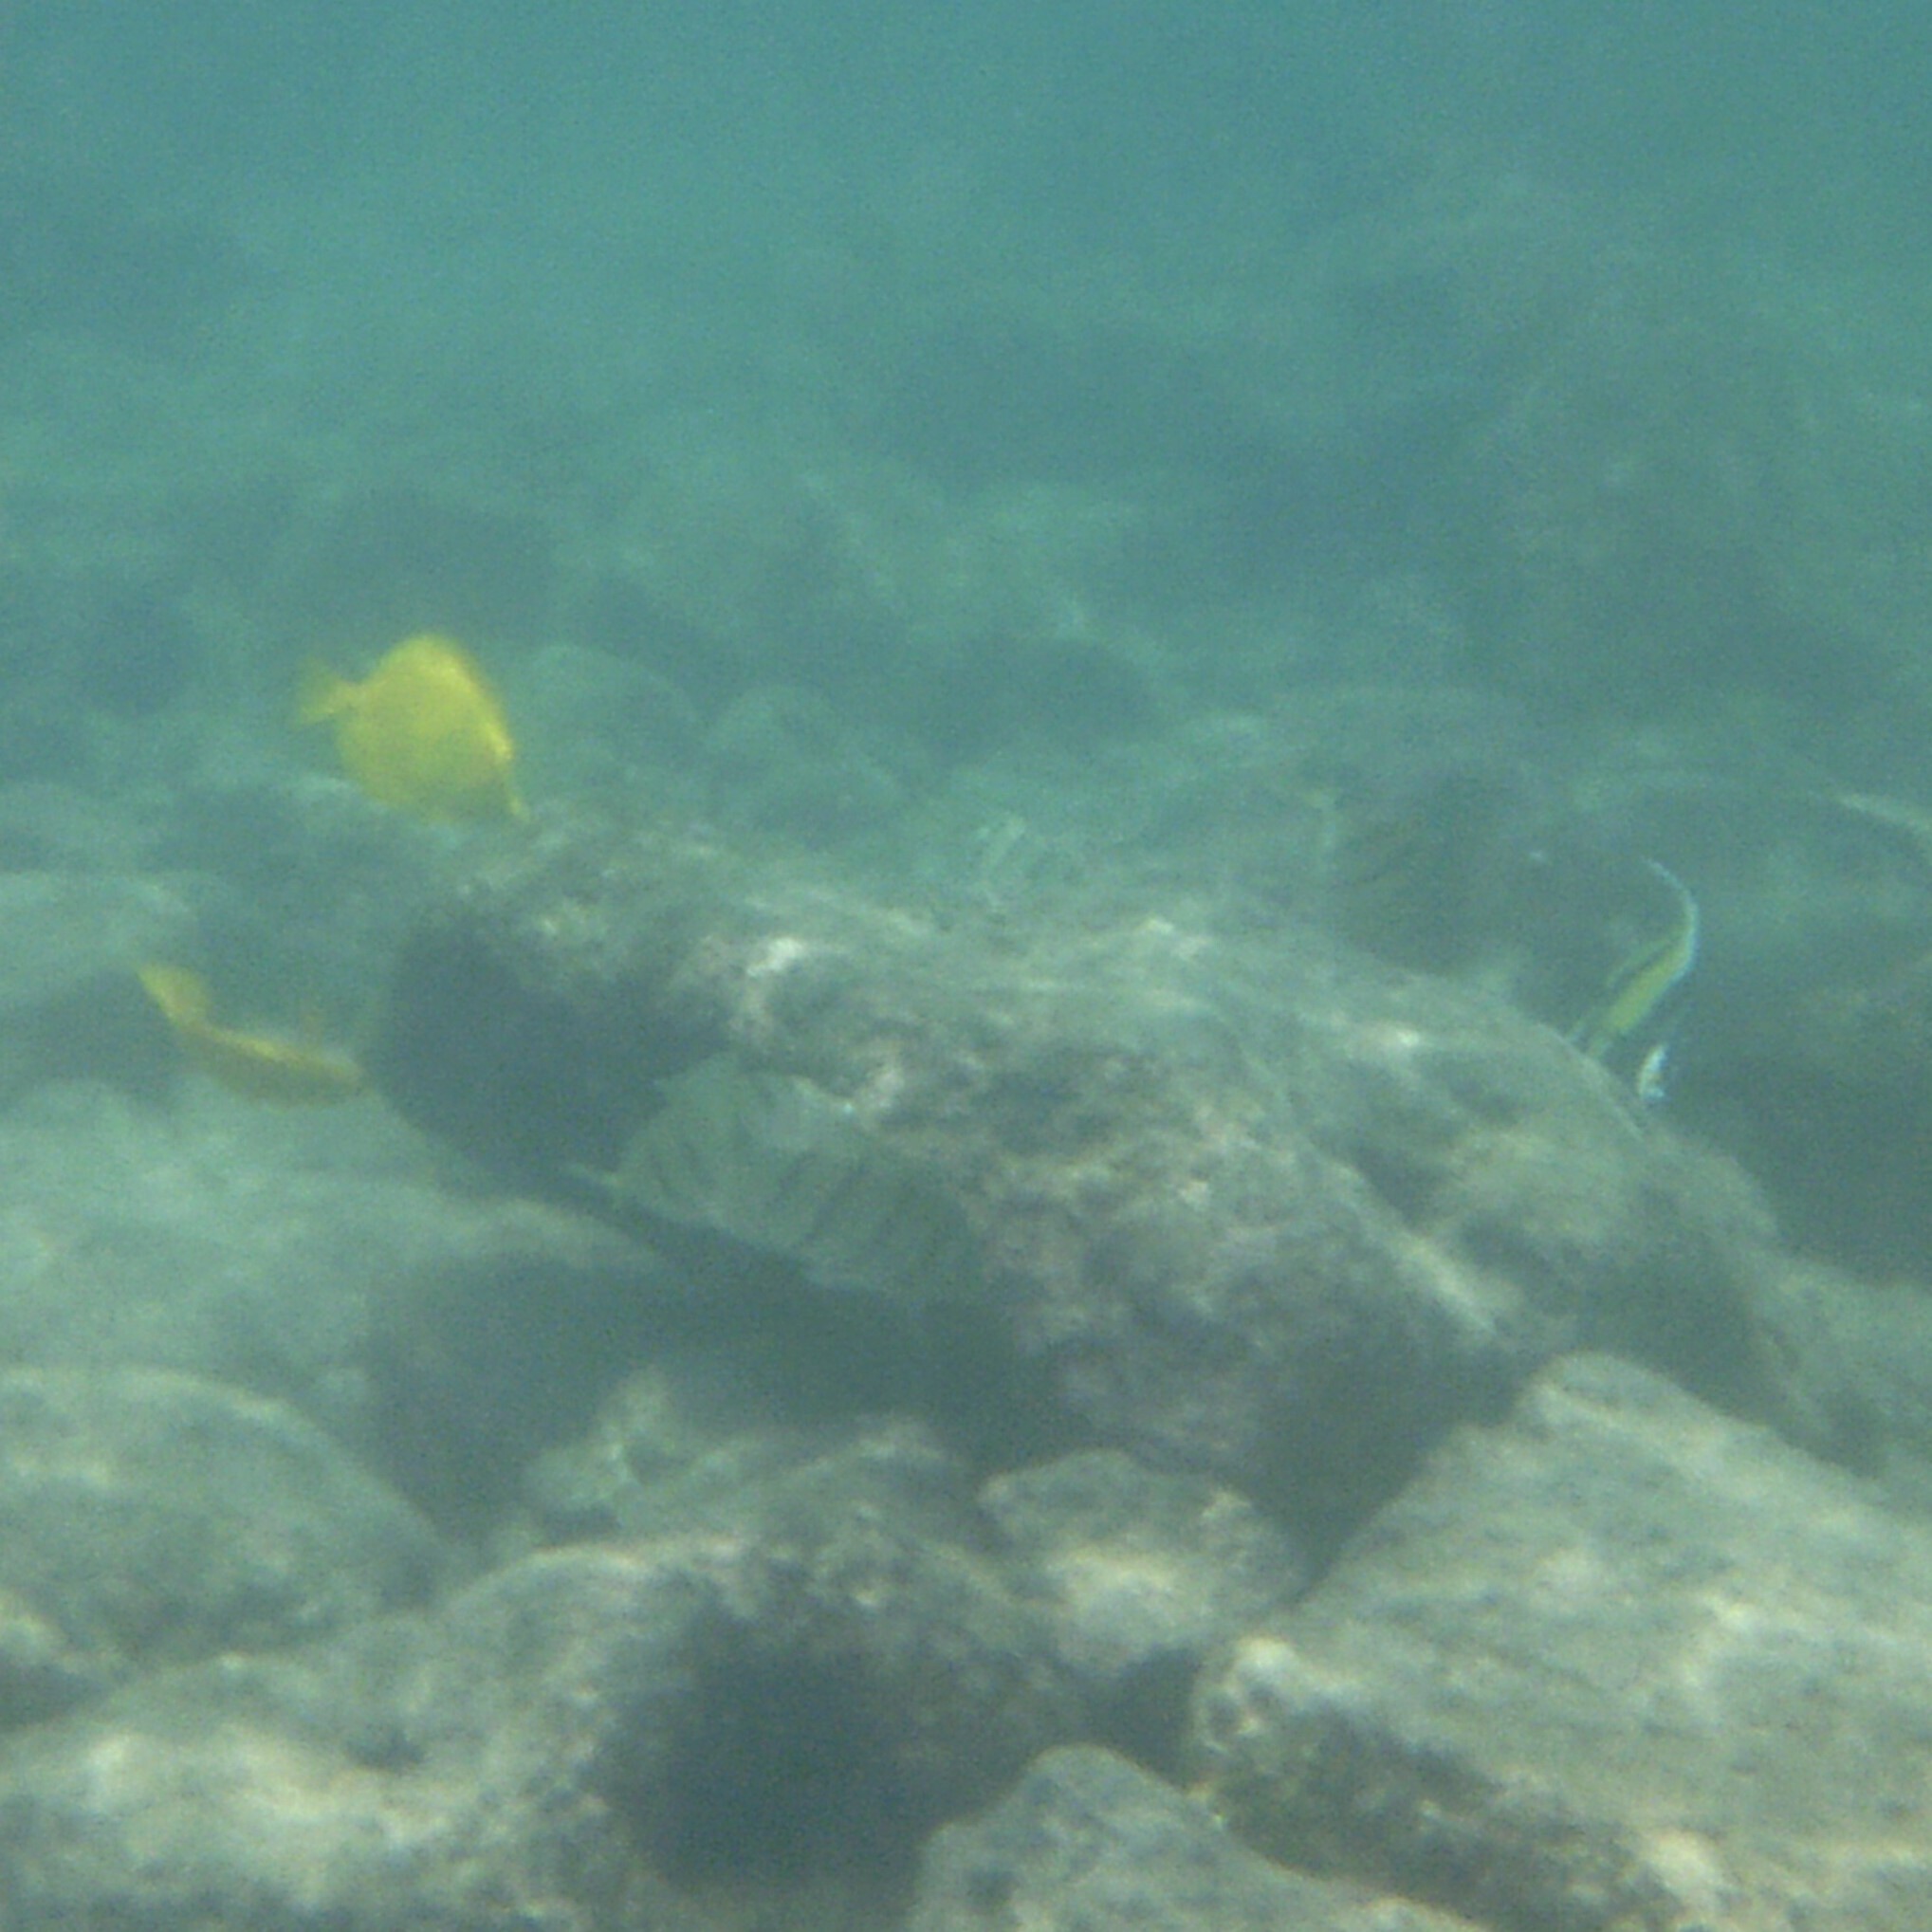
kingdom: Animalia
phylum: Chordata
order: Perciformes
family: Acanthuridae
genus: Acanthurus
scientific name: Acanthurus triostegus
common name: Convict surgeonfish
